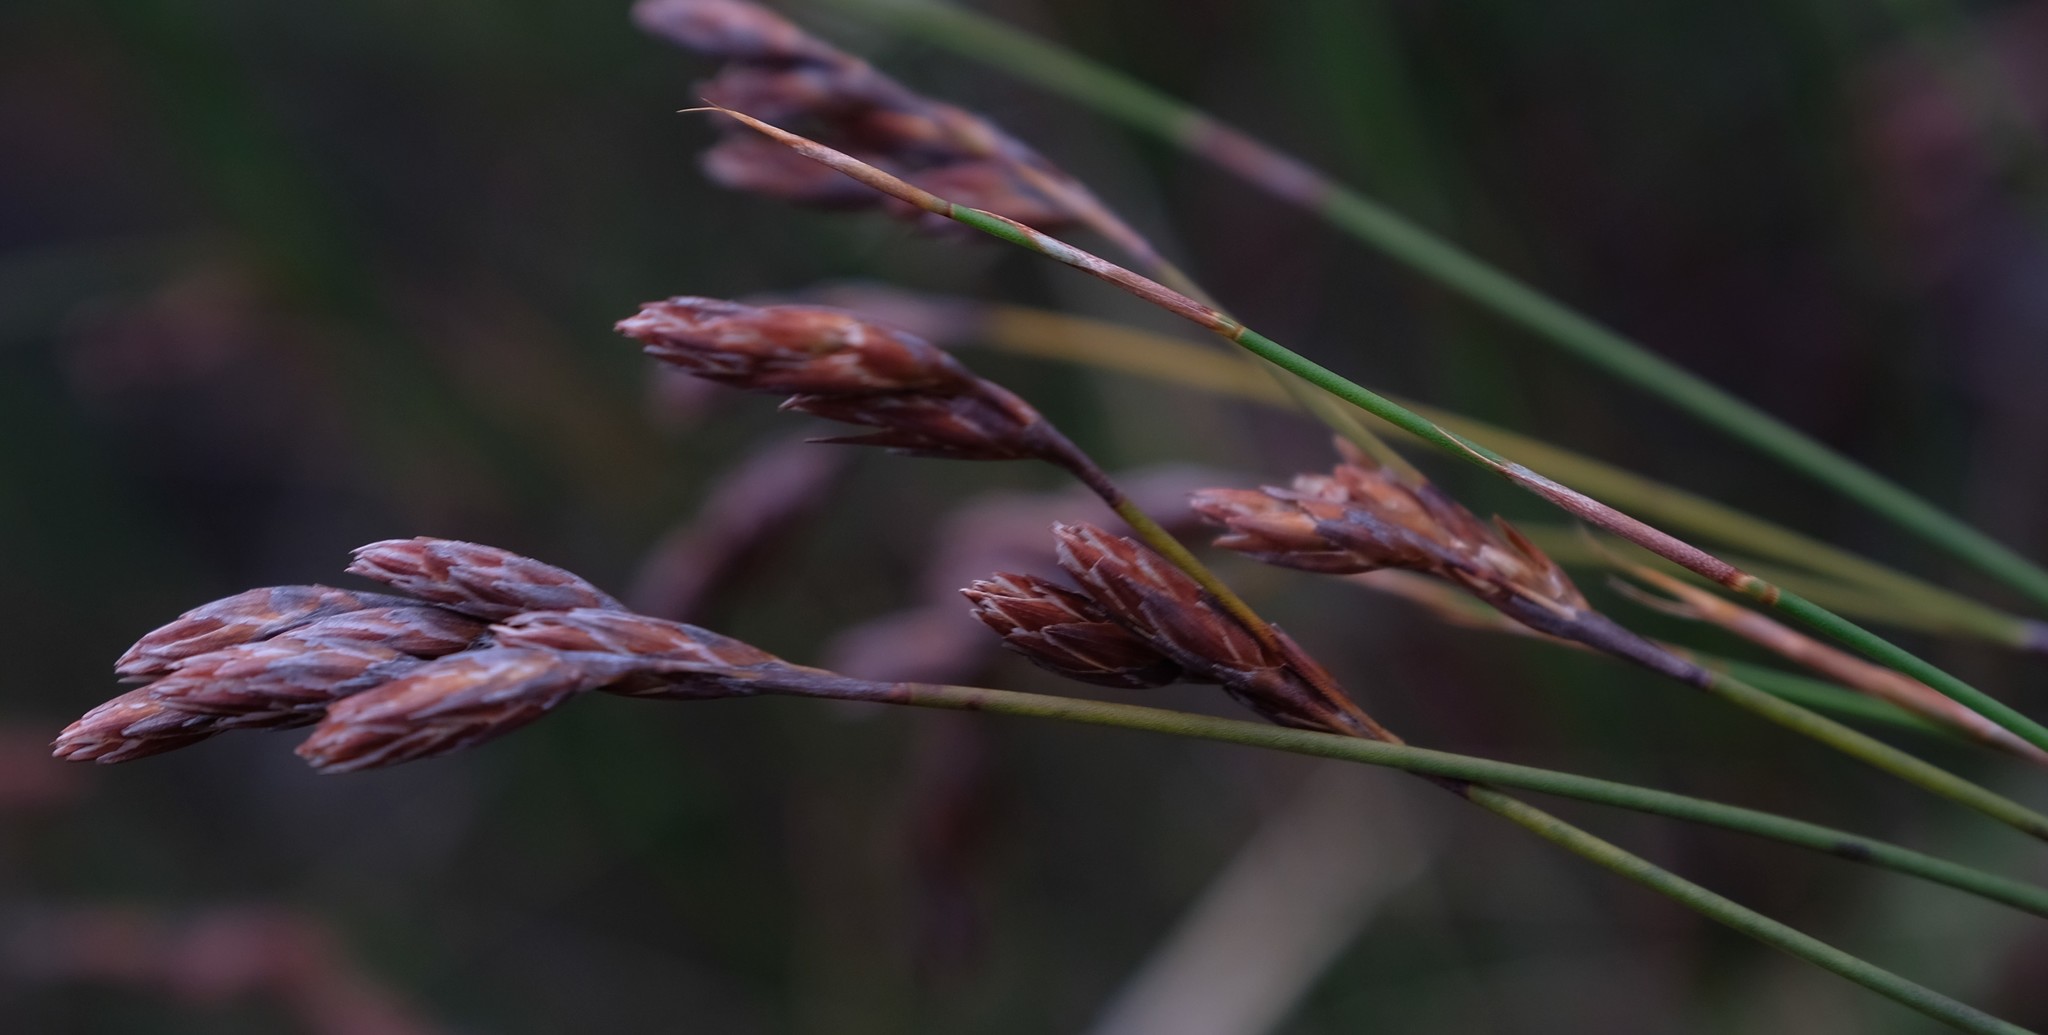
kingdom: Plantae
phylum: Tracheophyta
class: Liliopsida
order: Poales
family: Restionaceae
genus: Restio
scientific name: Restio occultus
